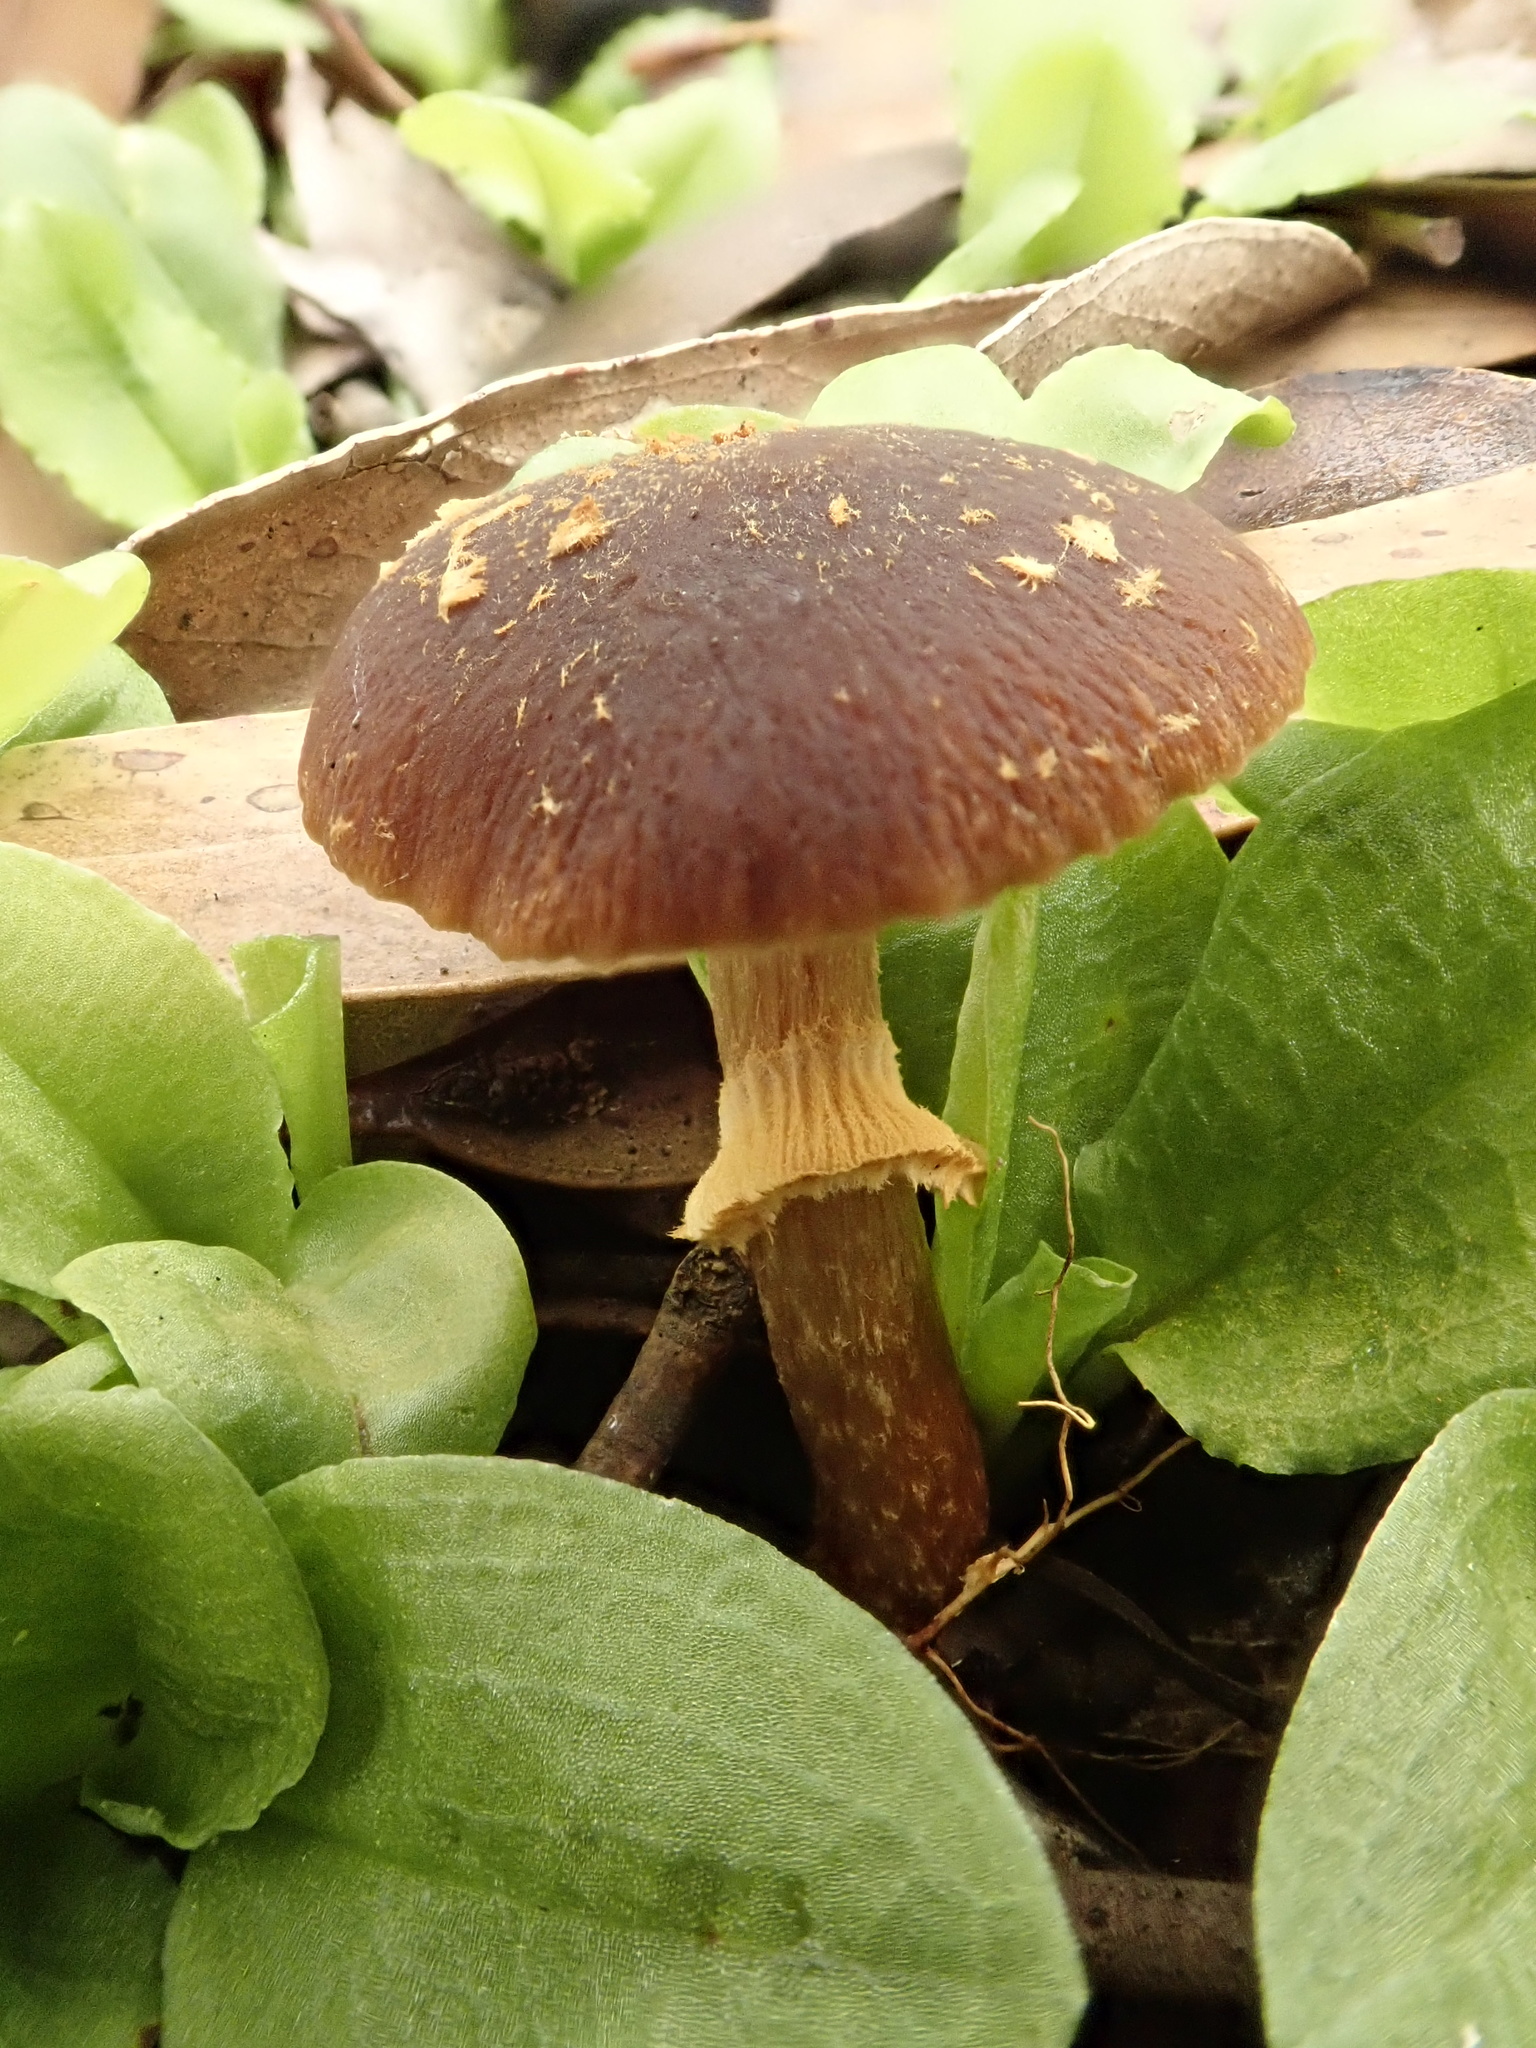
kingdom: Fungi
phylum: Basidiomycota
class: Agaricomycetes
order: Agaricales
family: Bolbitiaceae
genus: Descolea
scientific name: Descolea recedens
